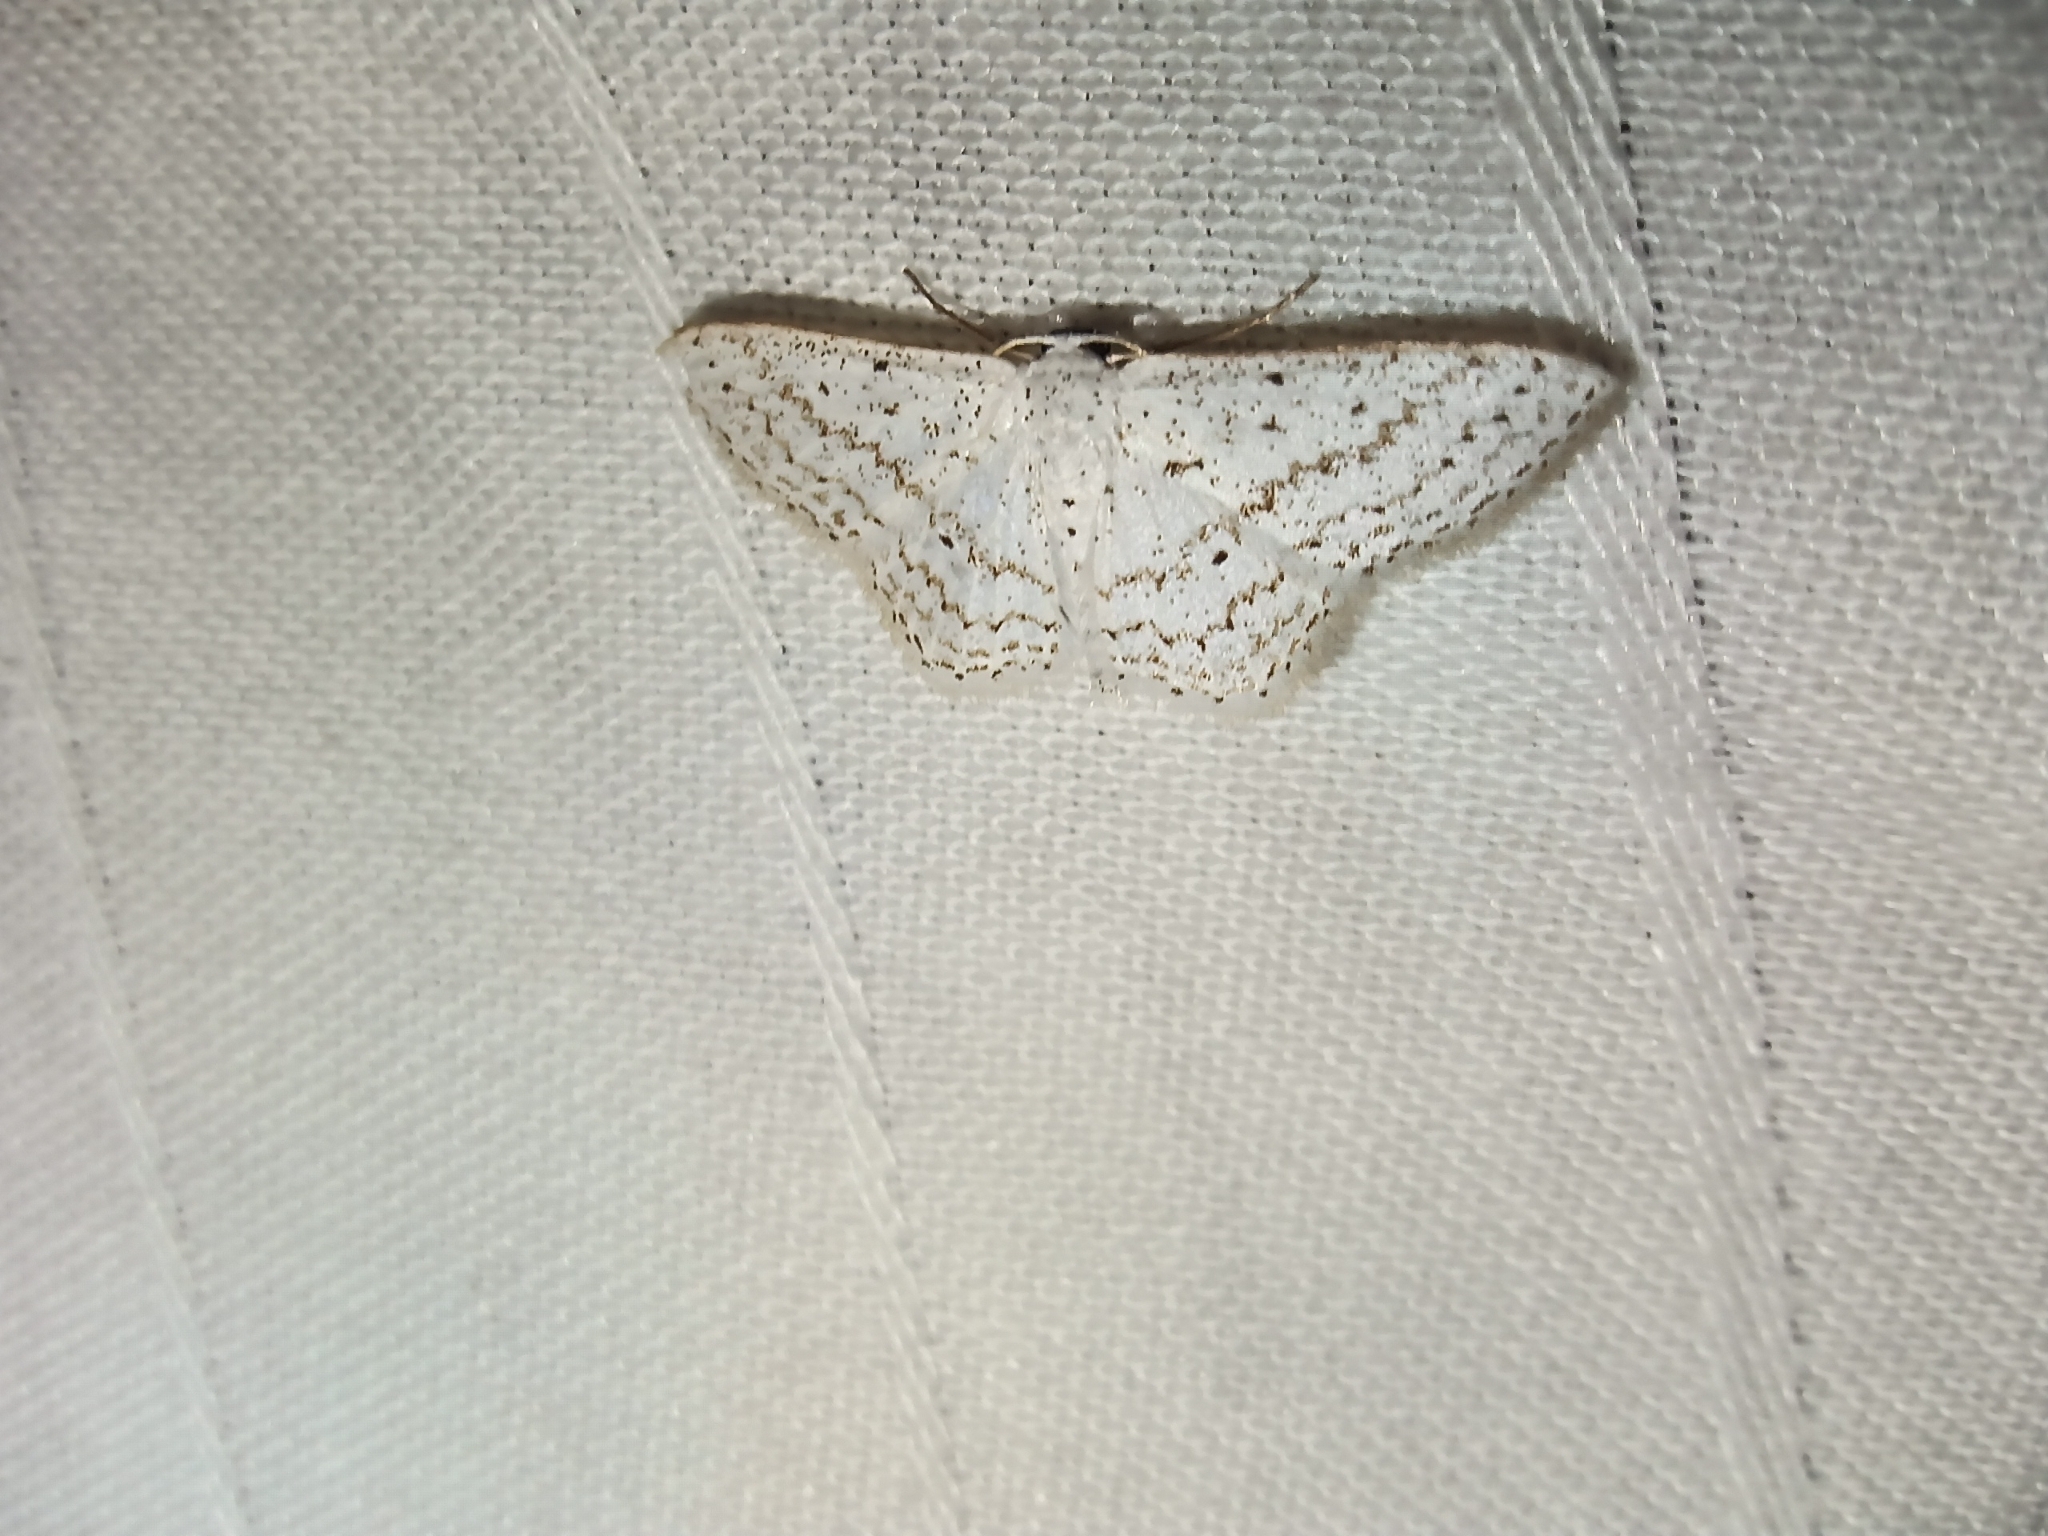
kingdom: Animalia
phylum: Arthropoda
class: Insecta
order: Lepidoptera
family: Geometridae
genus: Idaea
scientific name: Idaea tacturata
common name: Dot-lined wave
